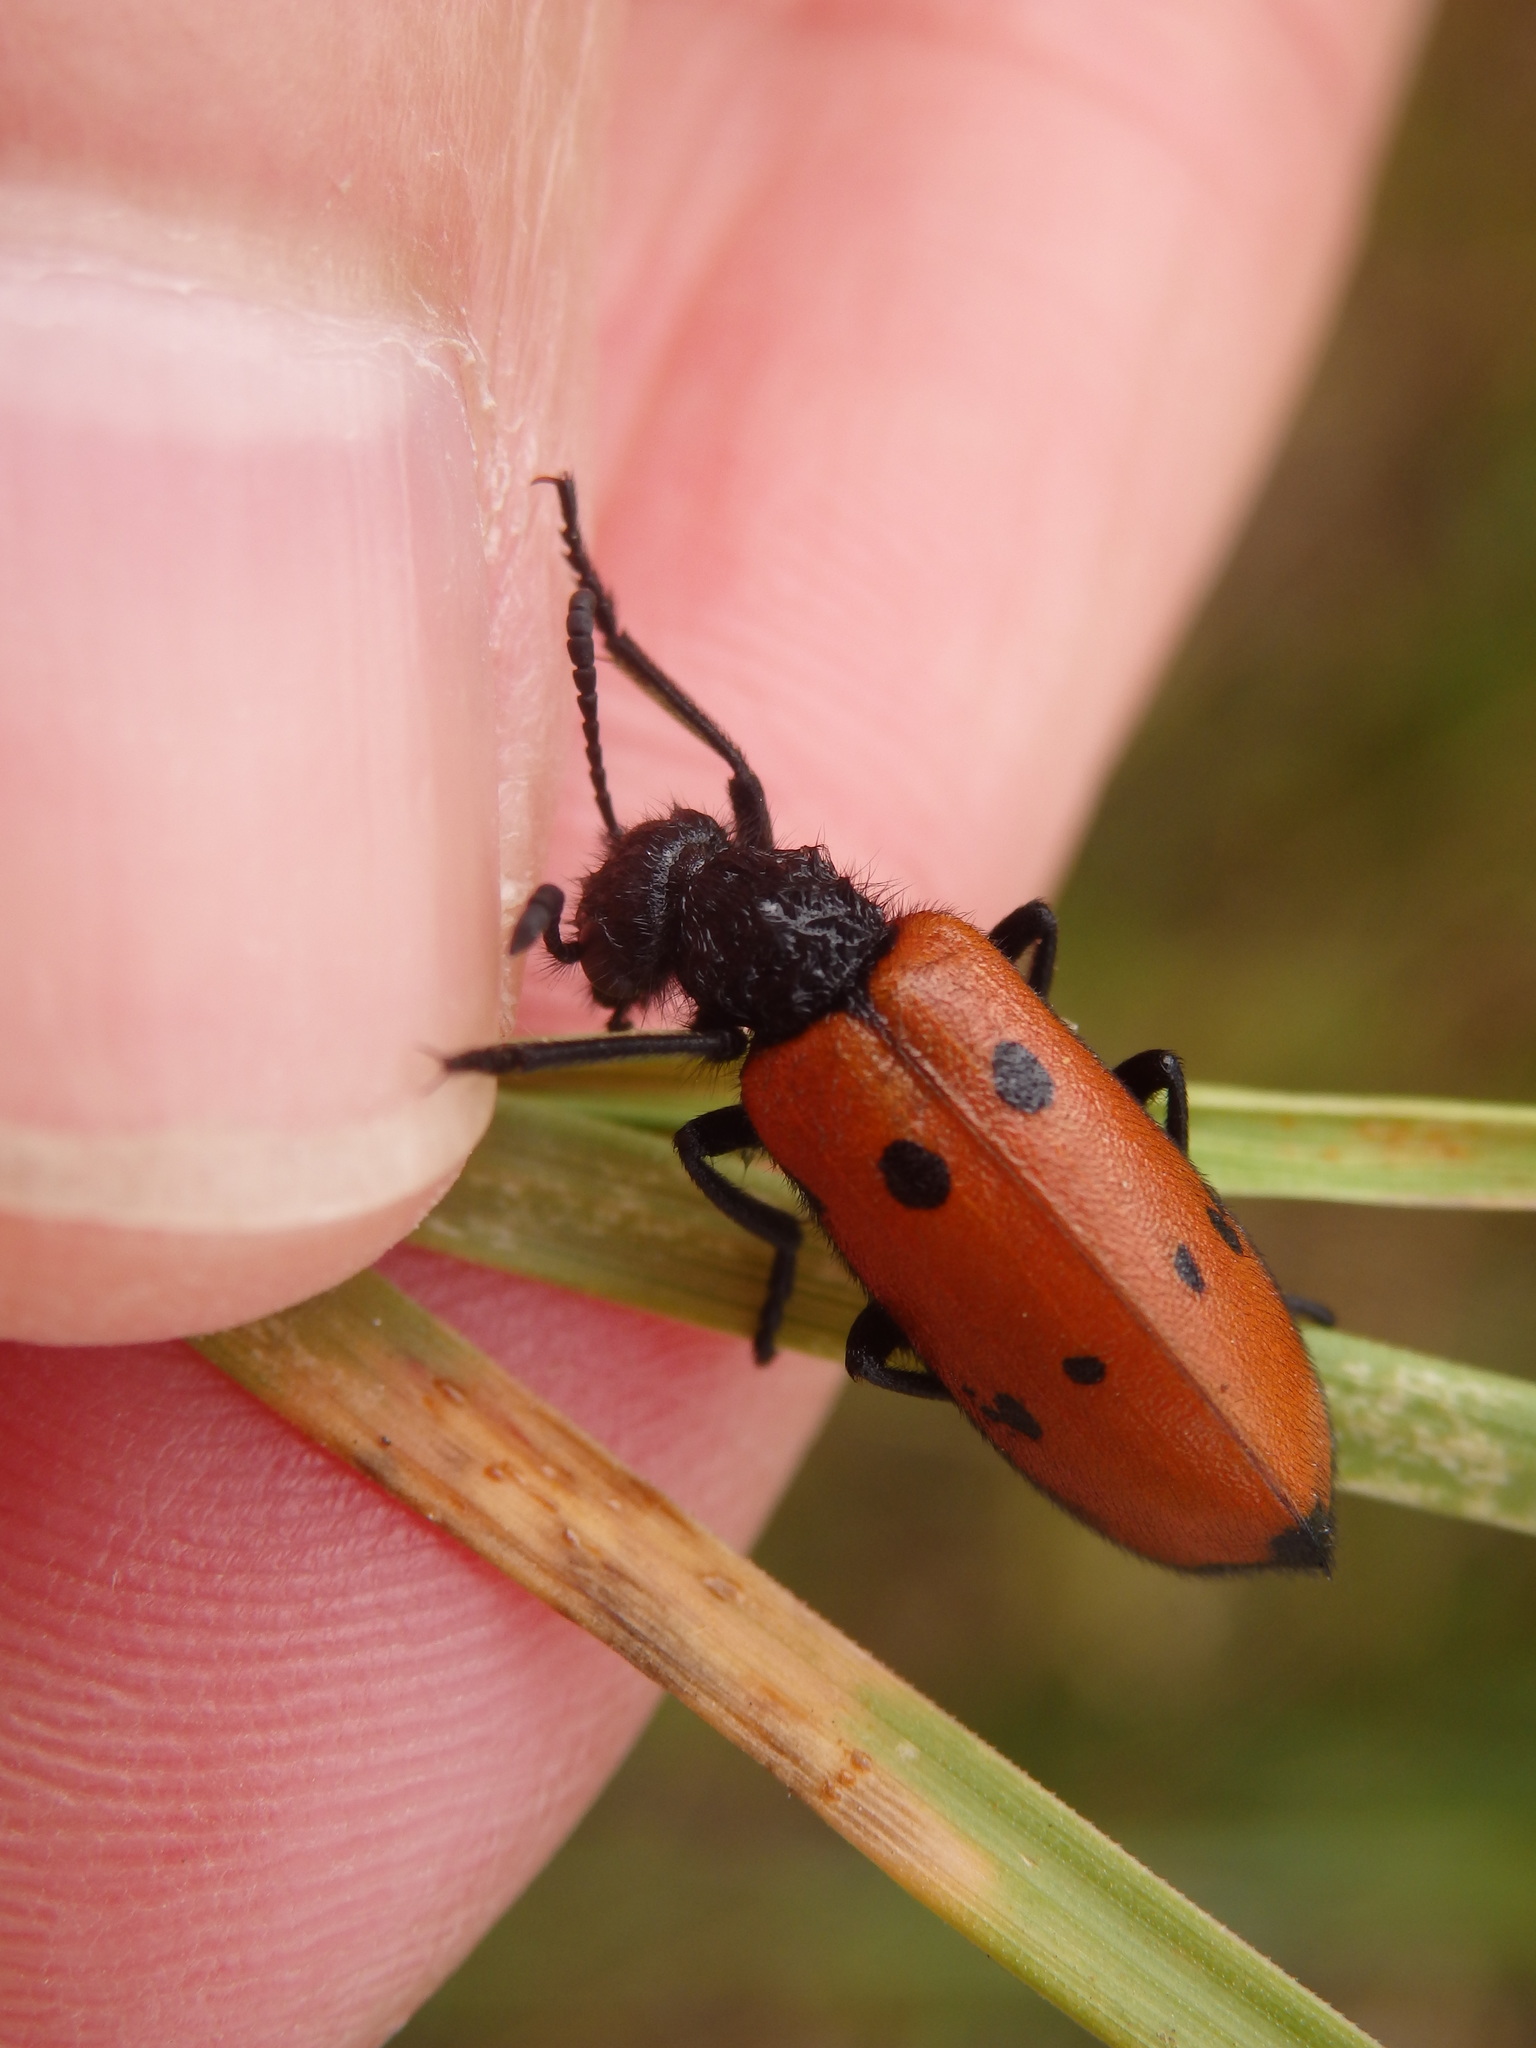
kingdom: Animalia
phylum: Arthropoda
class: Insecta
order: Coleoptera
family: Meloidae
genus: Mylabris
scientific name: Mylabris quadripunctata
